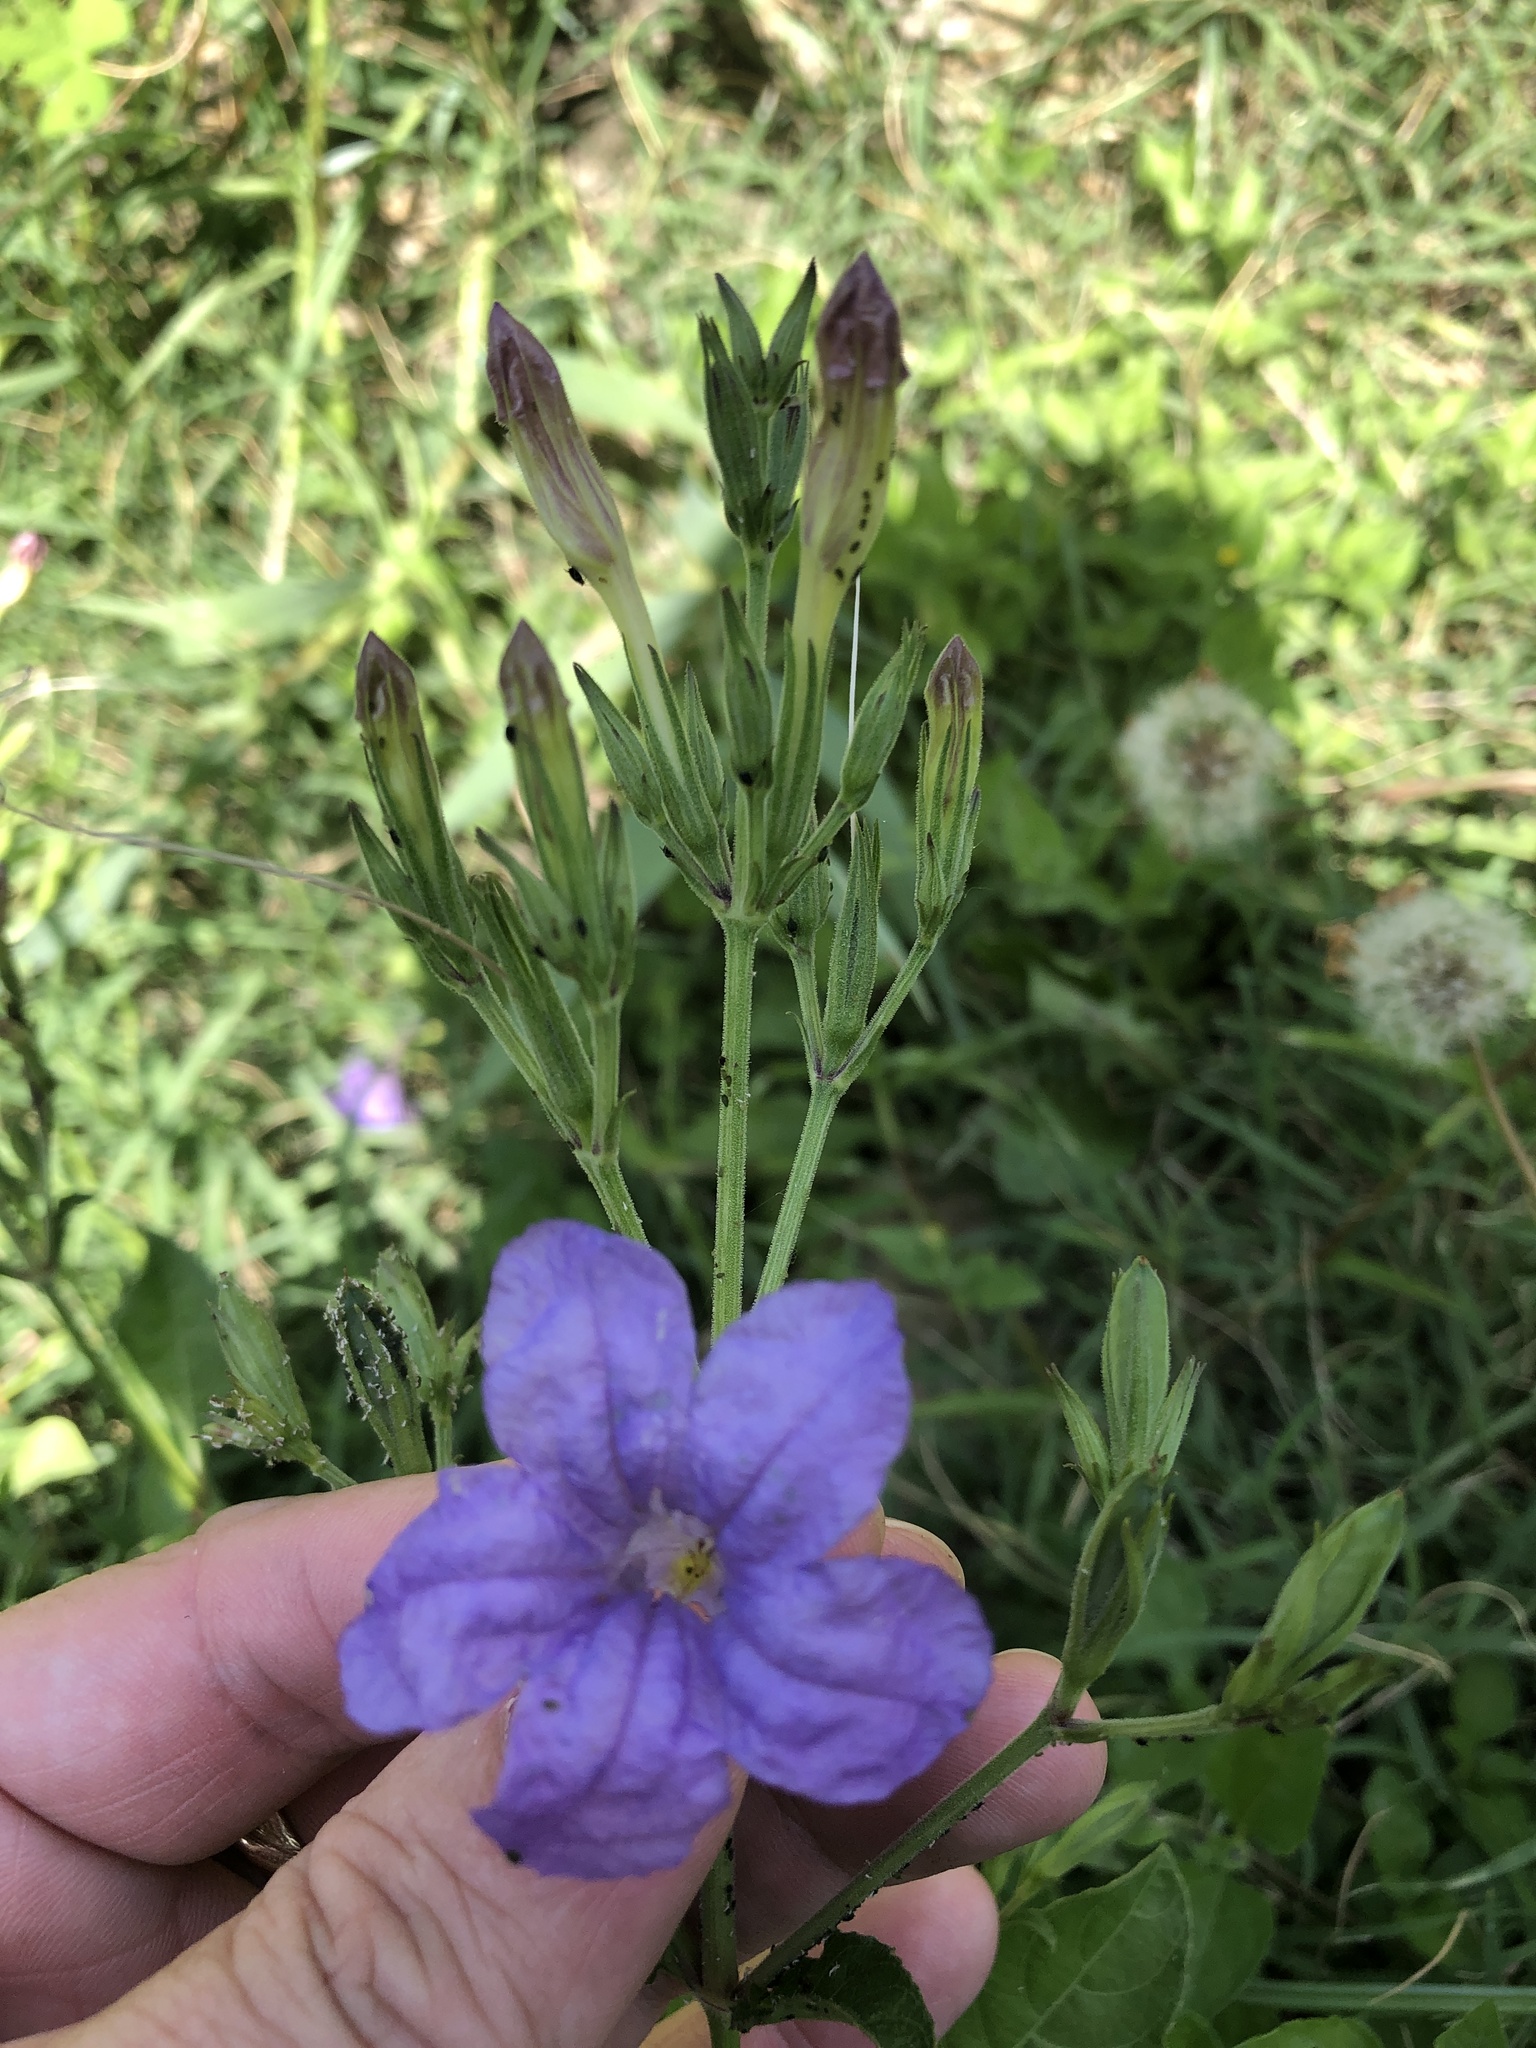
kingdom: Plantae
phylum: Tracheophyta
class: Magnoliopsida
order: Lamiales
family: Acanthaceae
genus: Ruellia
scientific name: Ruellia ciliatiflora
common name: Hairyflower wild petunia
